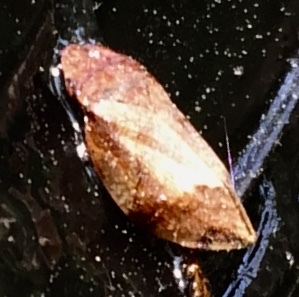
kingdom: Animalia
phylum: Arthropoda
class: Insecta
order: Hemiptera
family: Aphrophoridae
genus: Lepyronia
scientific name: Lepyronia quadrangularis
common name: Diamond-backed spittlebug
